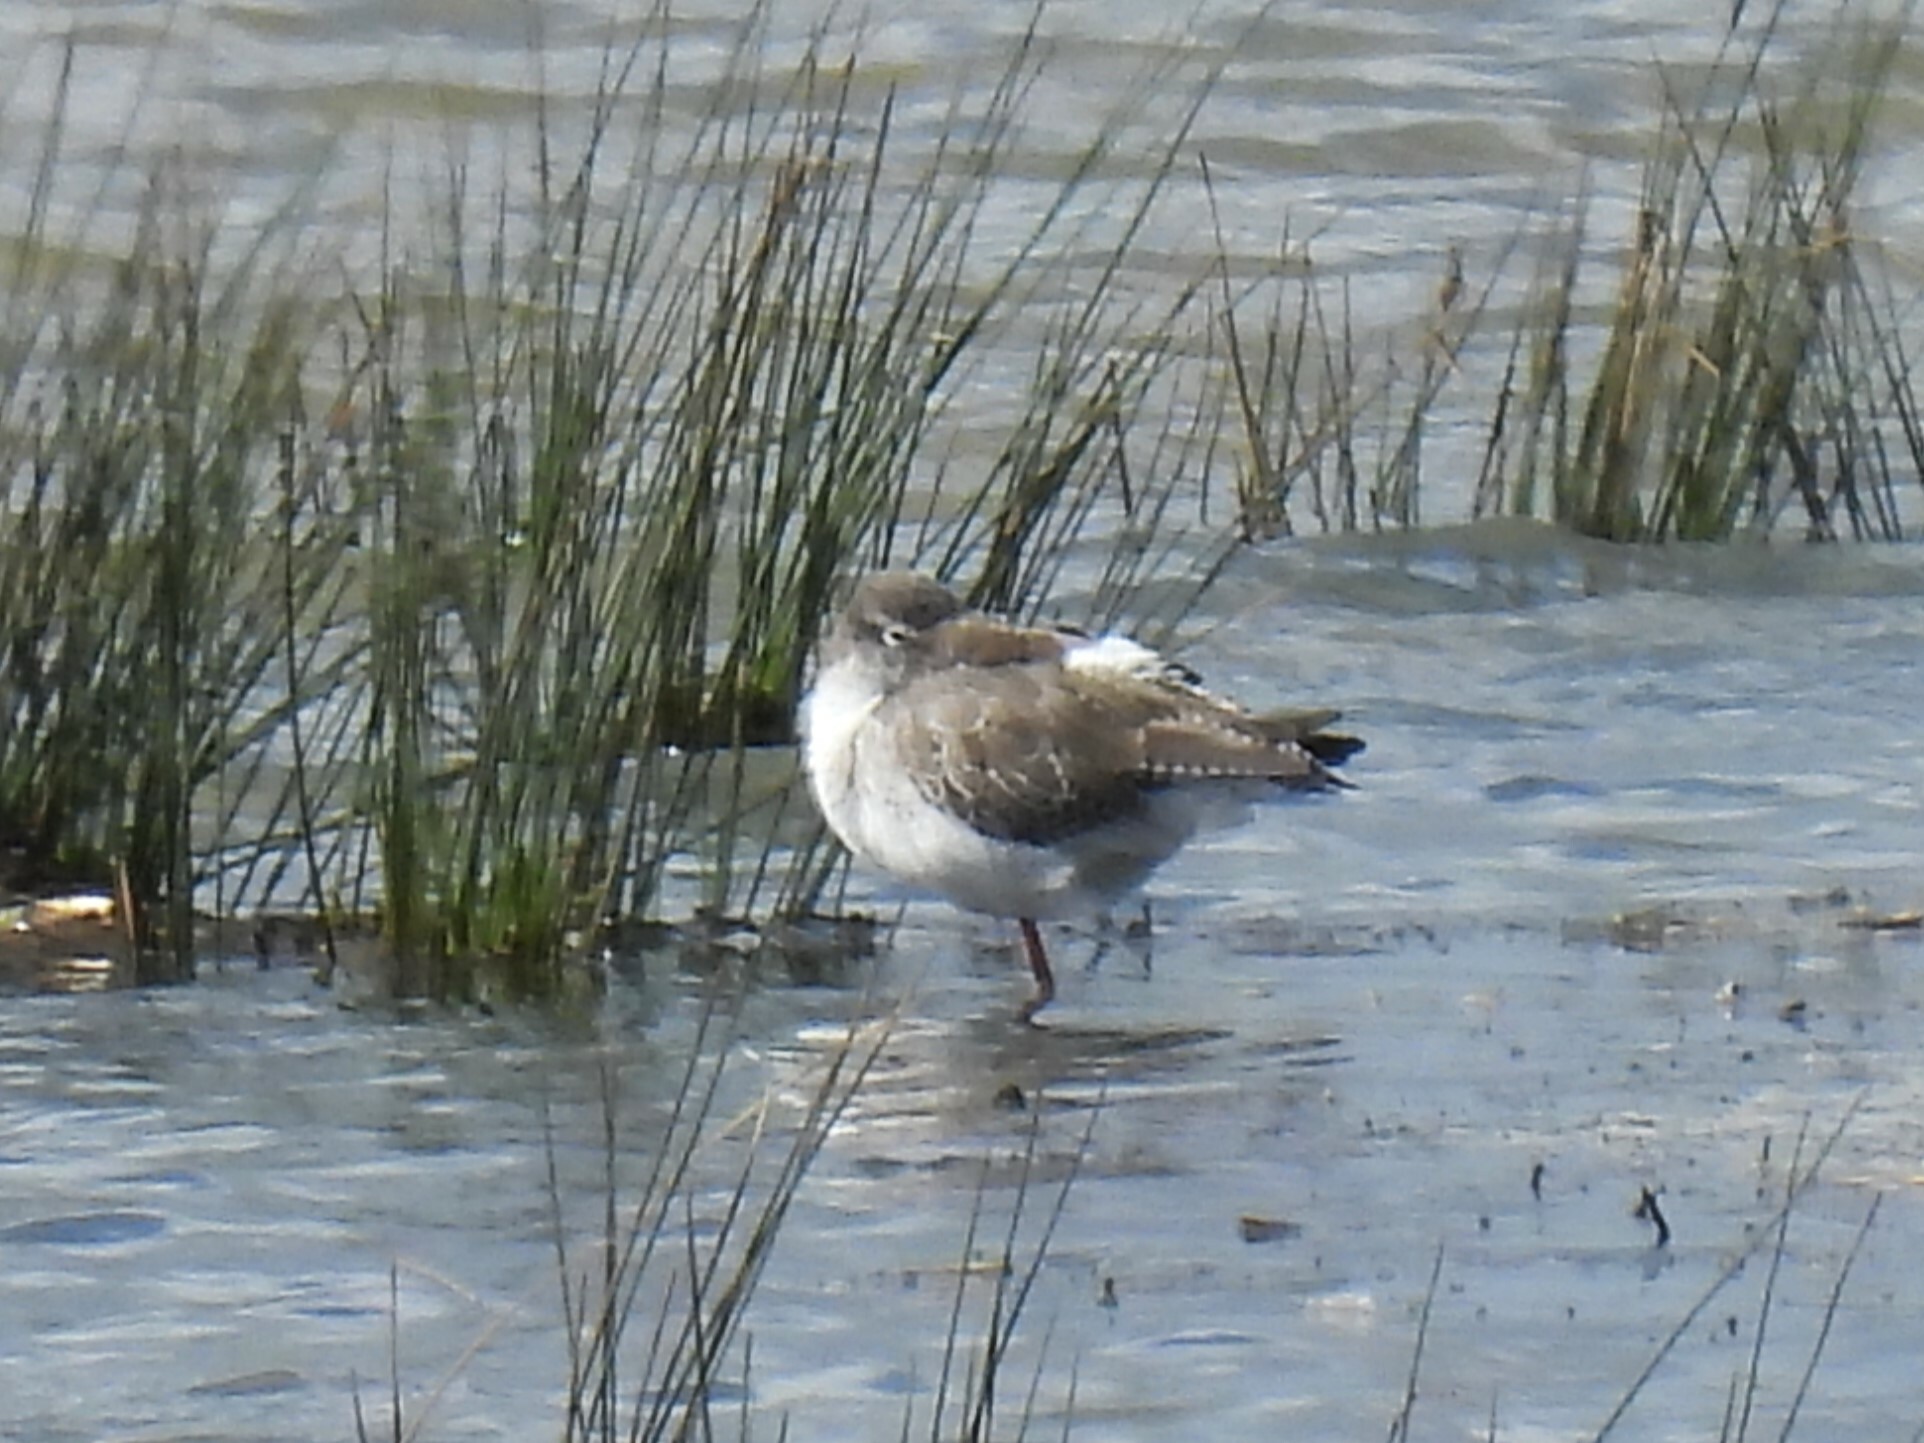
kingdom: Animalia
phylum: Chordata
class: Aves
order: Charadriiformes
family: Scolopacidae
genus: Tringa
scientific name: Tringa erythropus
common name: Spotted redshank
